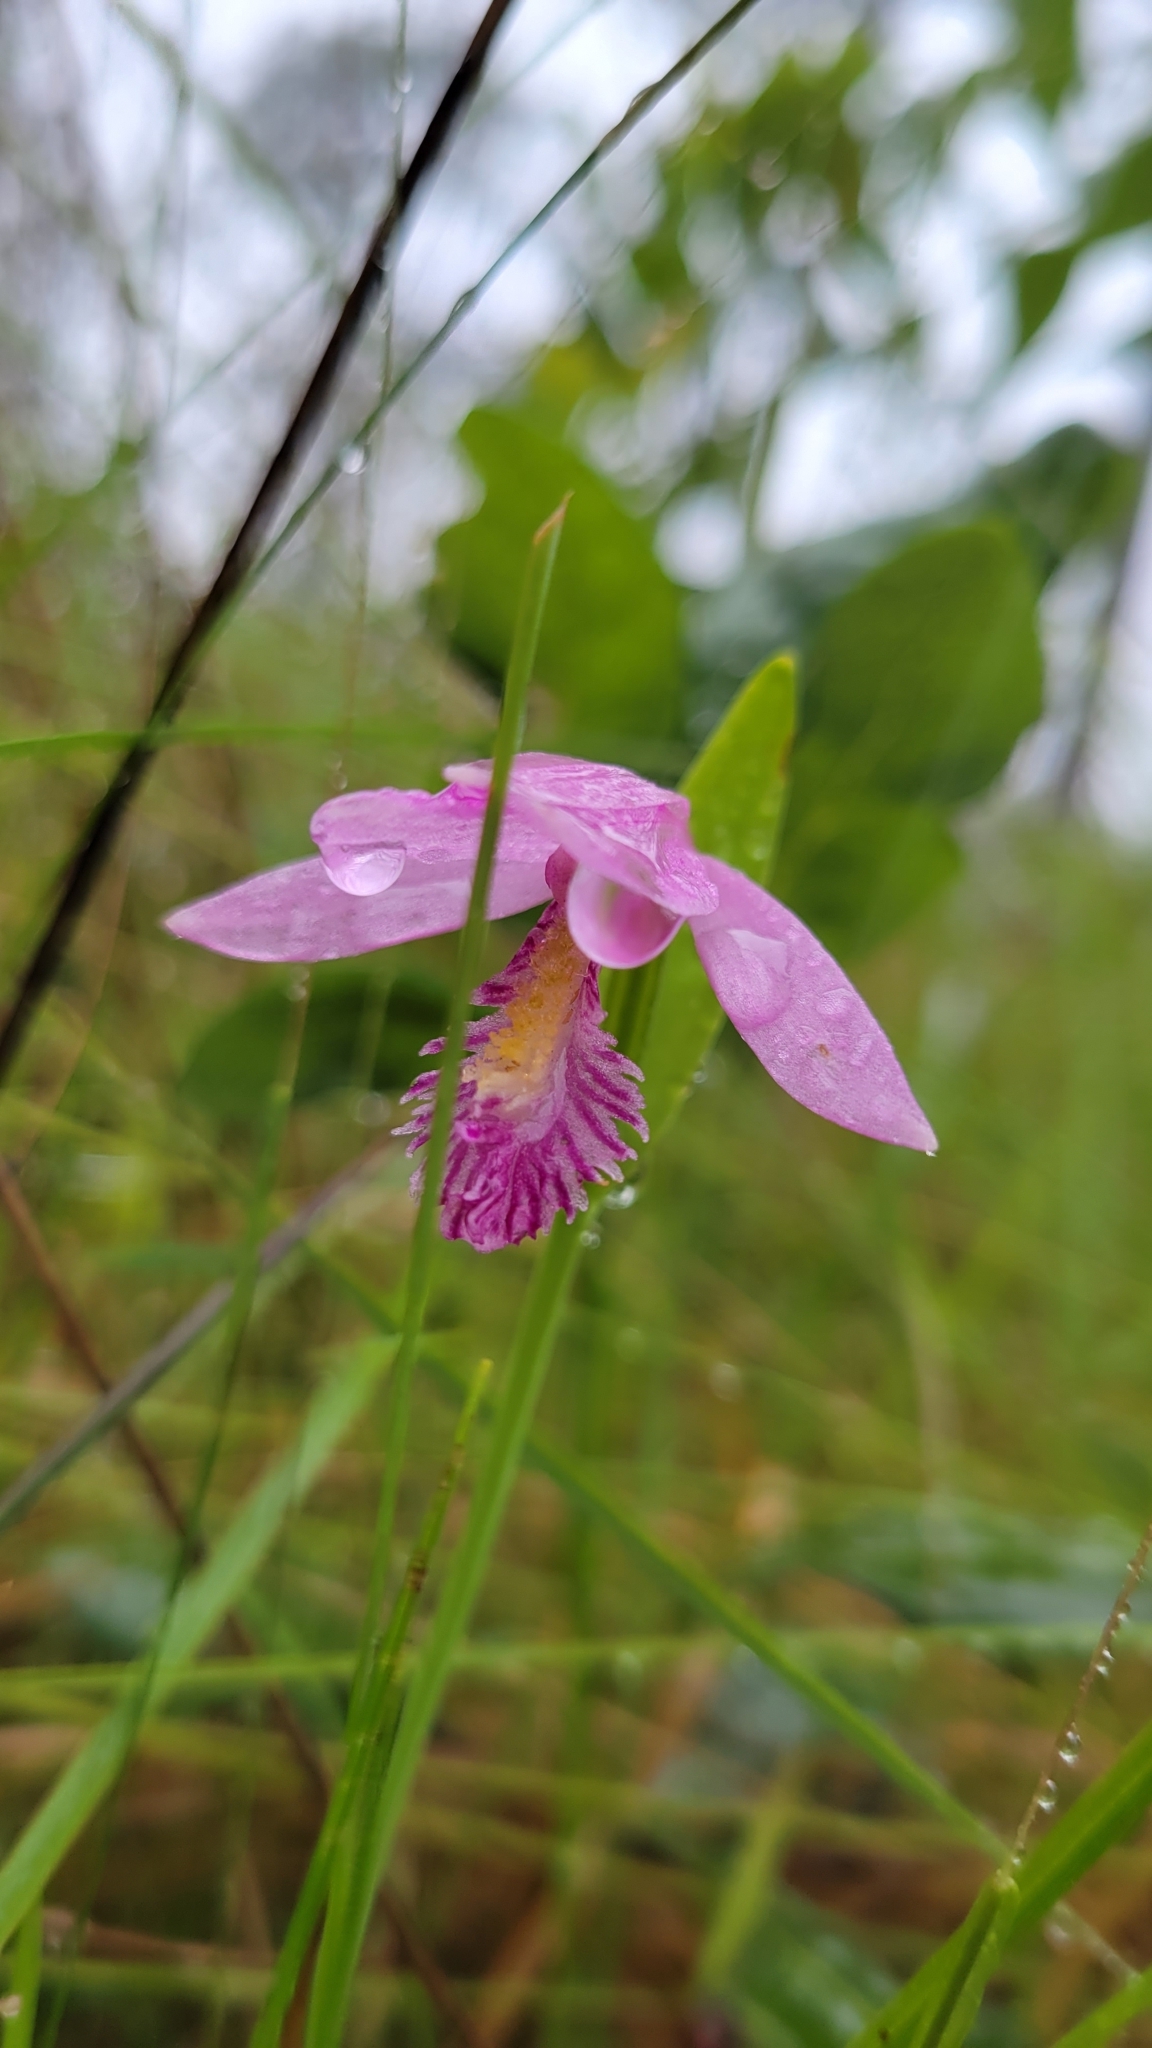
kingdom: Plantae
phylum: Tracheophyta
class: Liliopsida
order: Asparagales
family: Orchidaceae
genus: Pogonia
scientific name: Pogonia ophioglossoides
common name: Rose pogonia
